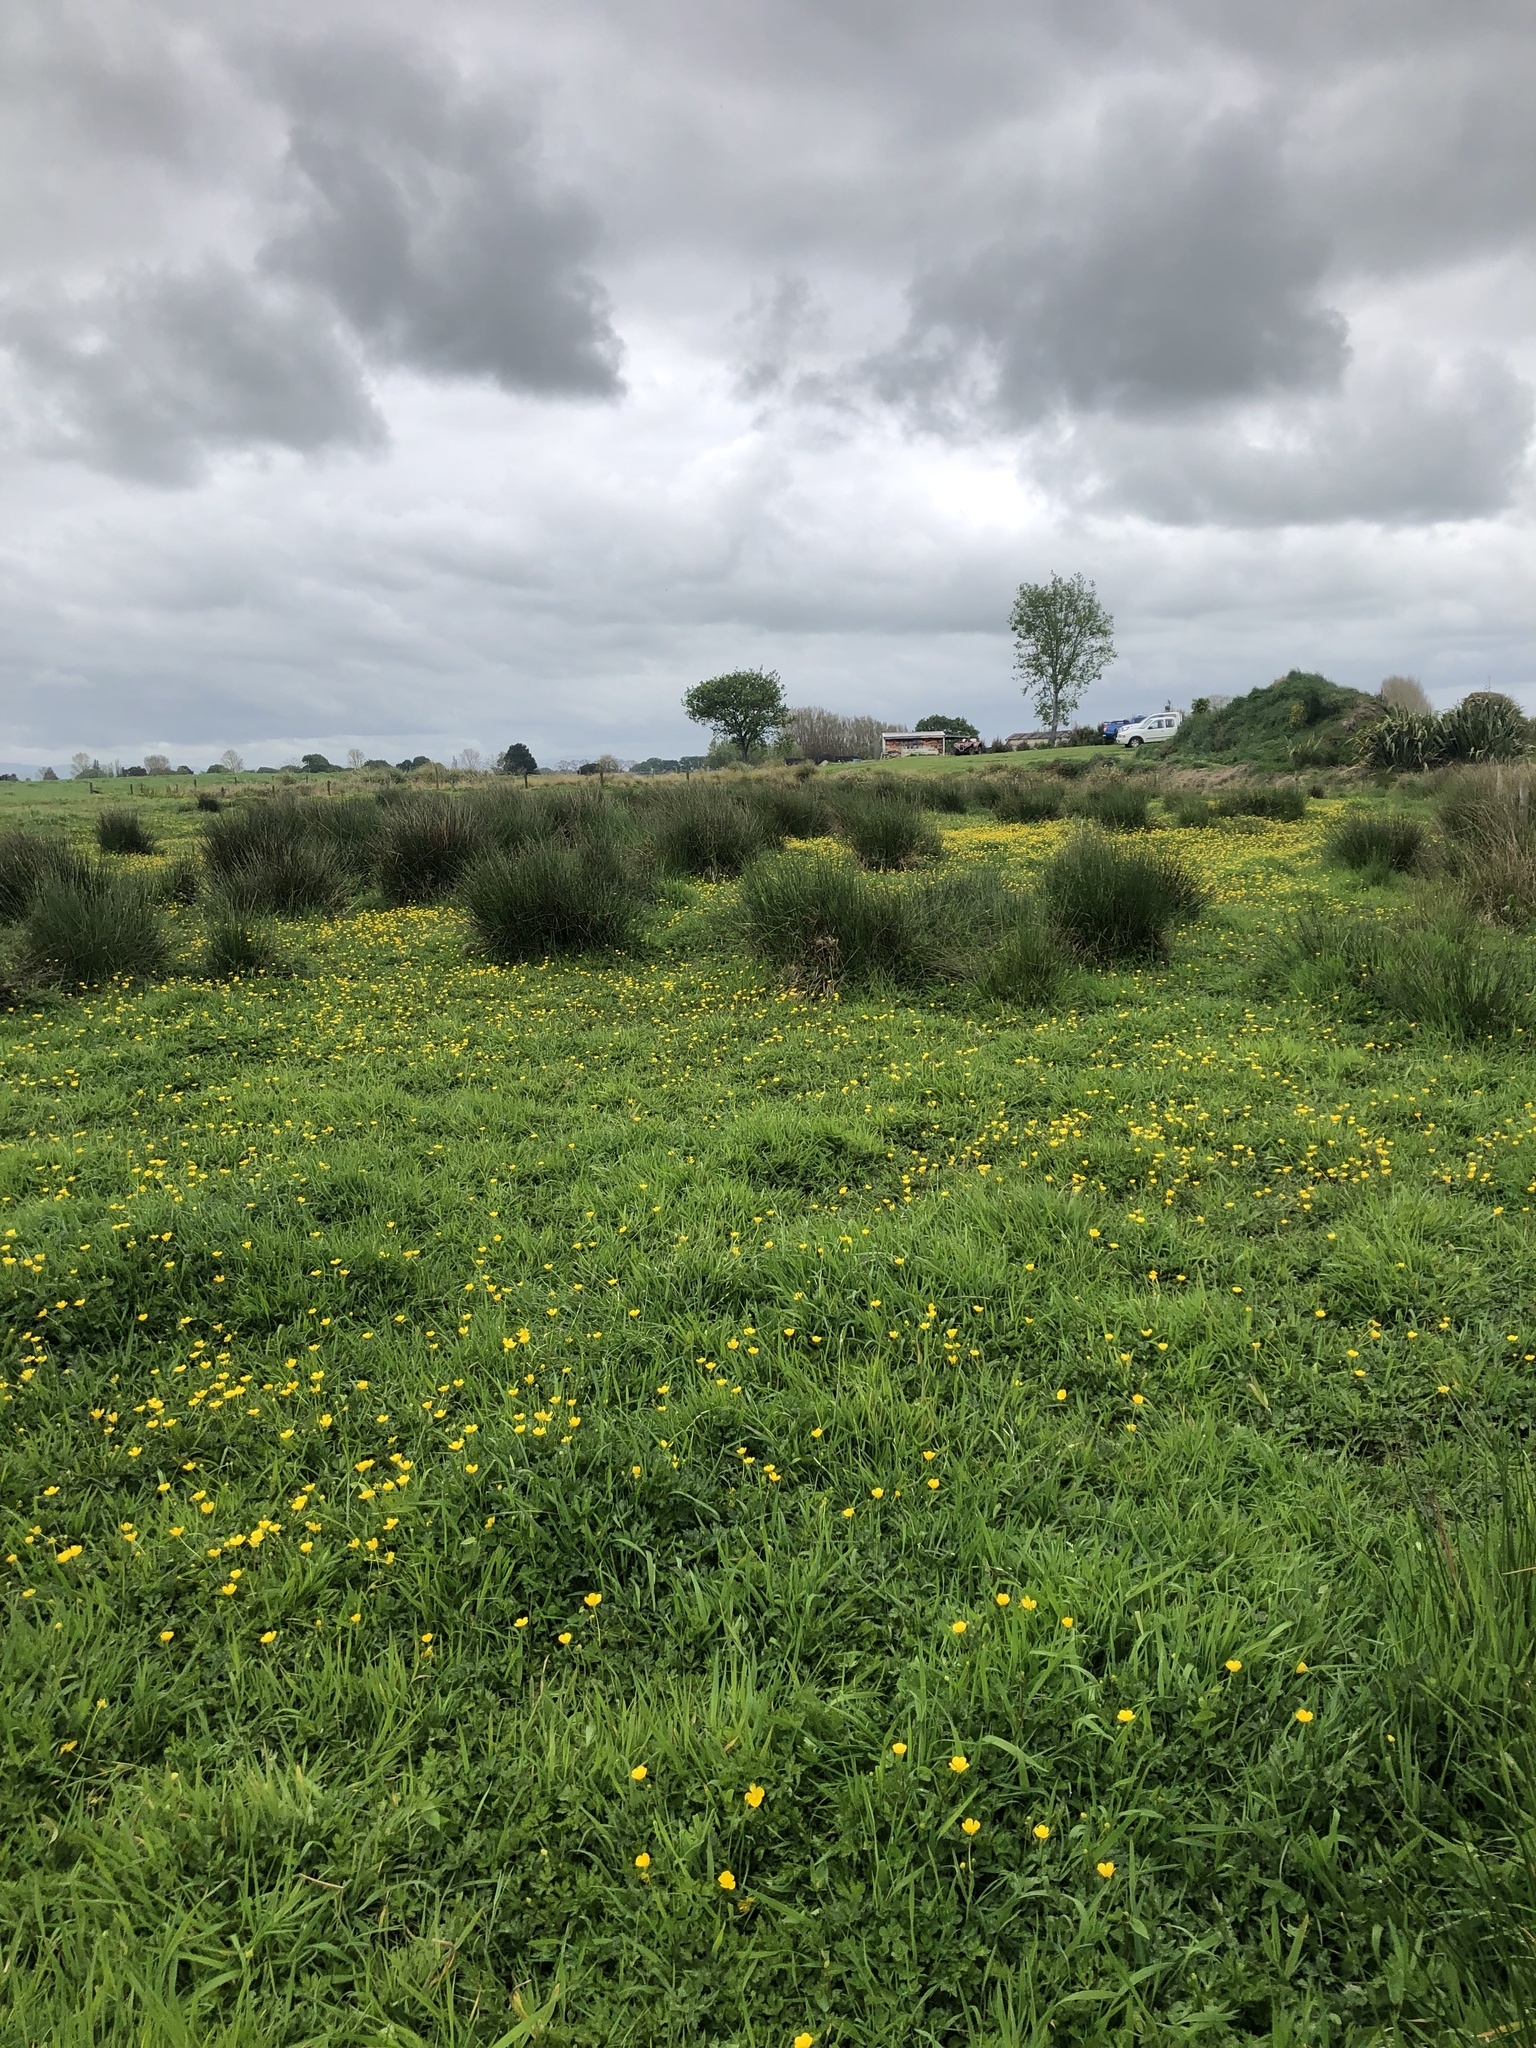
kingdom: Plantae
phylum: Tracheophyta
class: Magnoliopsida
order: Lamiales
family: Lamiaceae
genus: Lycopus
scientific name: Lycopus europaeus
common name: European bugleweed
